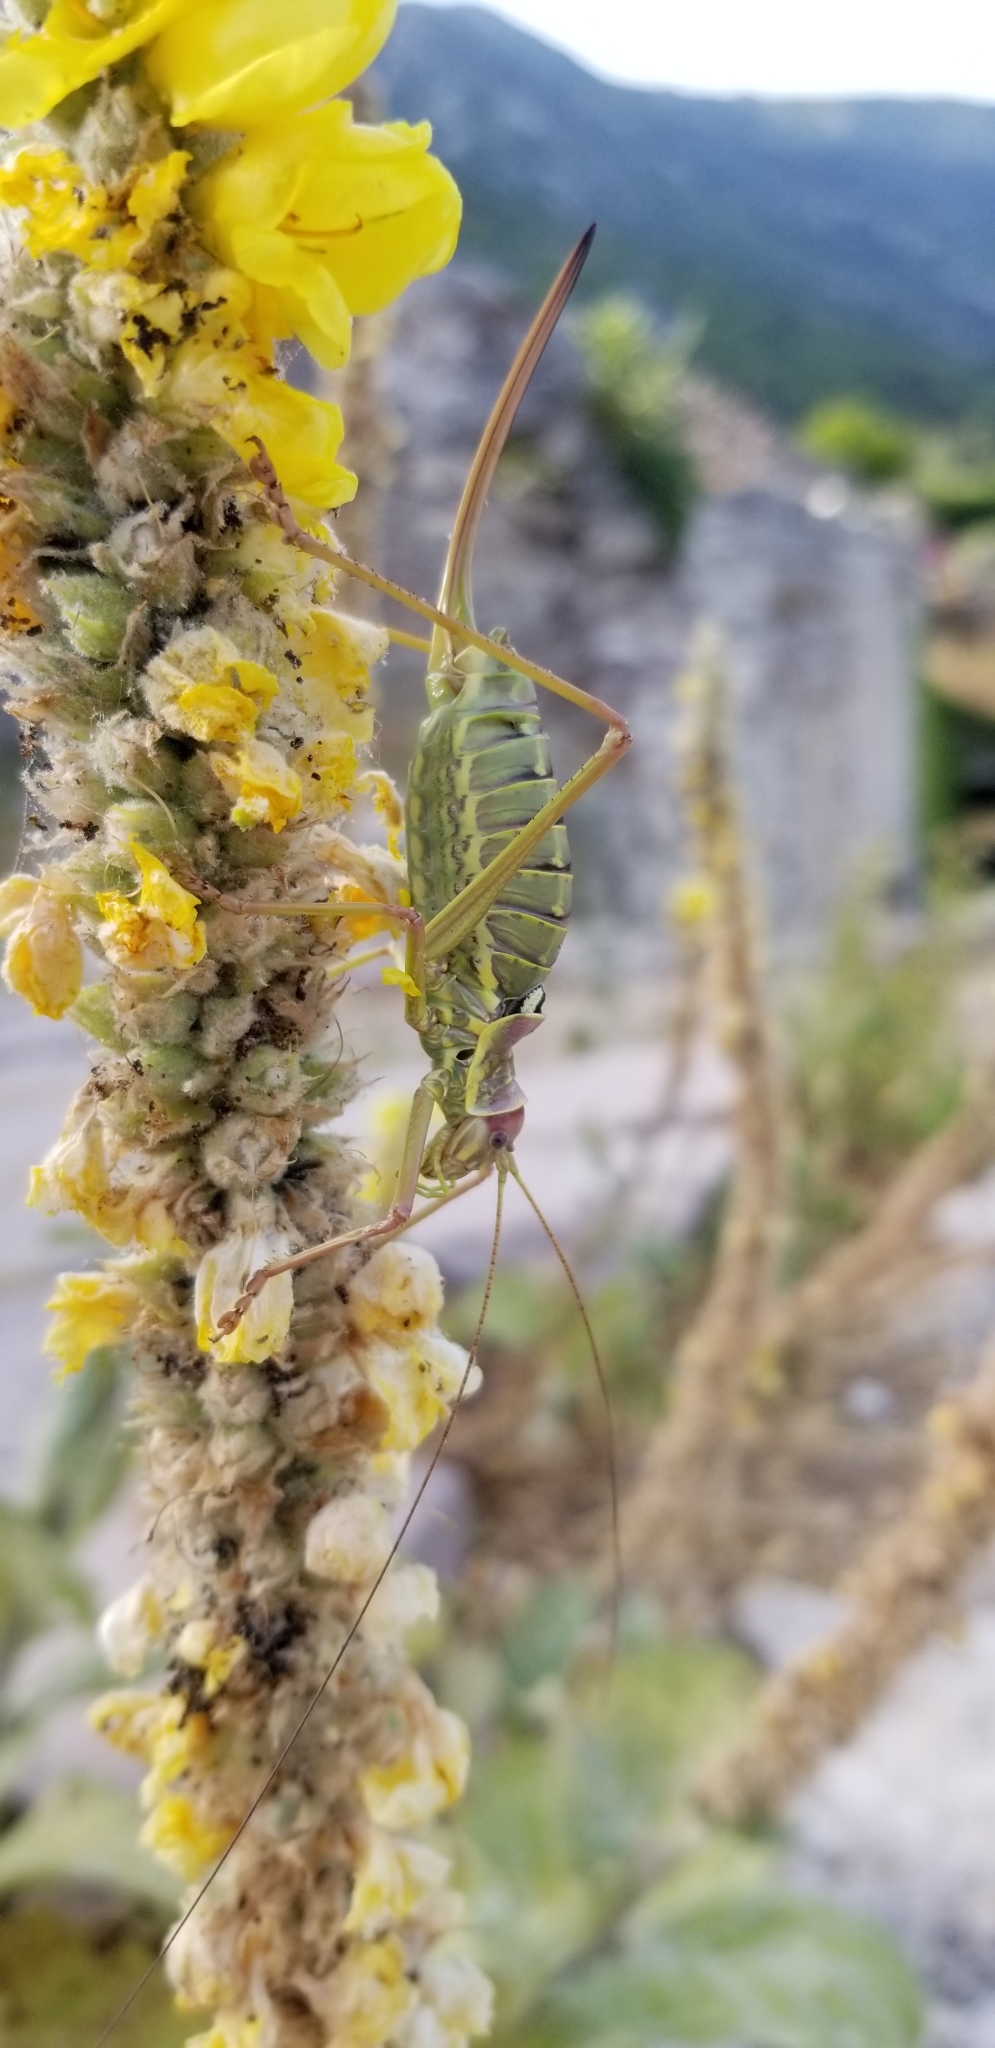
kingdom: Animalia
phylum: Arthropoda
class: Insecta
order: Orthoptera
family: Tettigoniidae
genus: Dinarippiger
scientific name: Dinarippiger discoidalis
